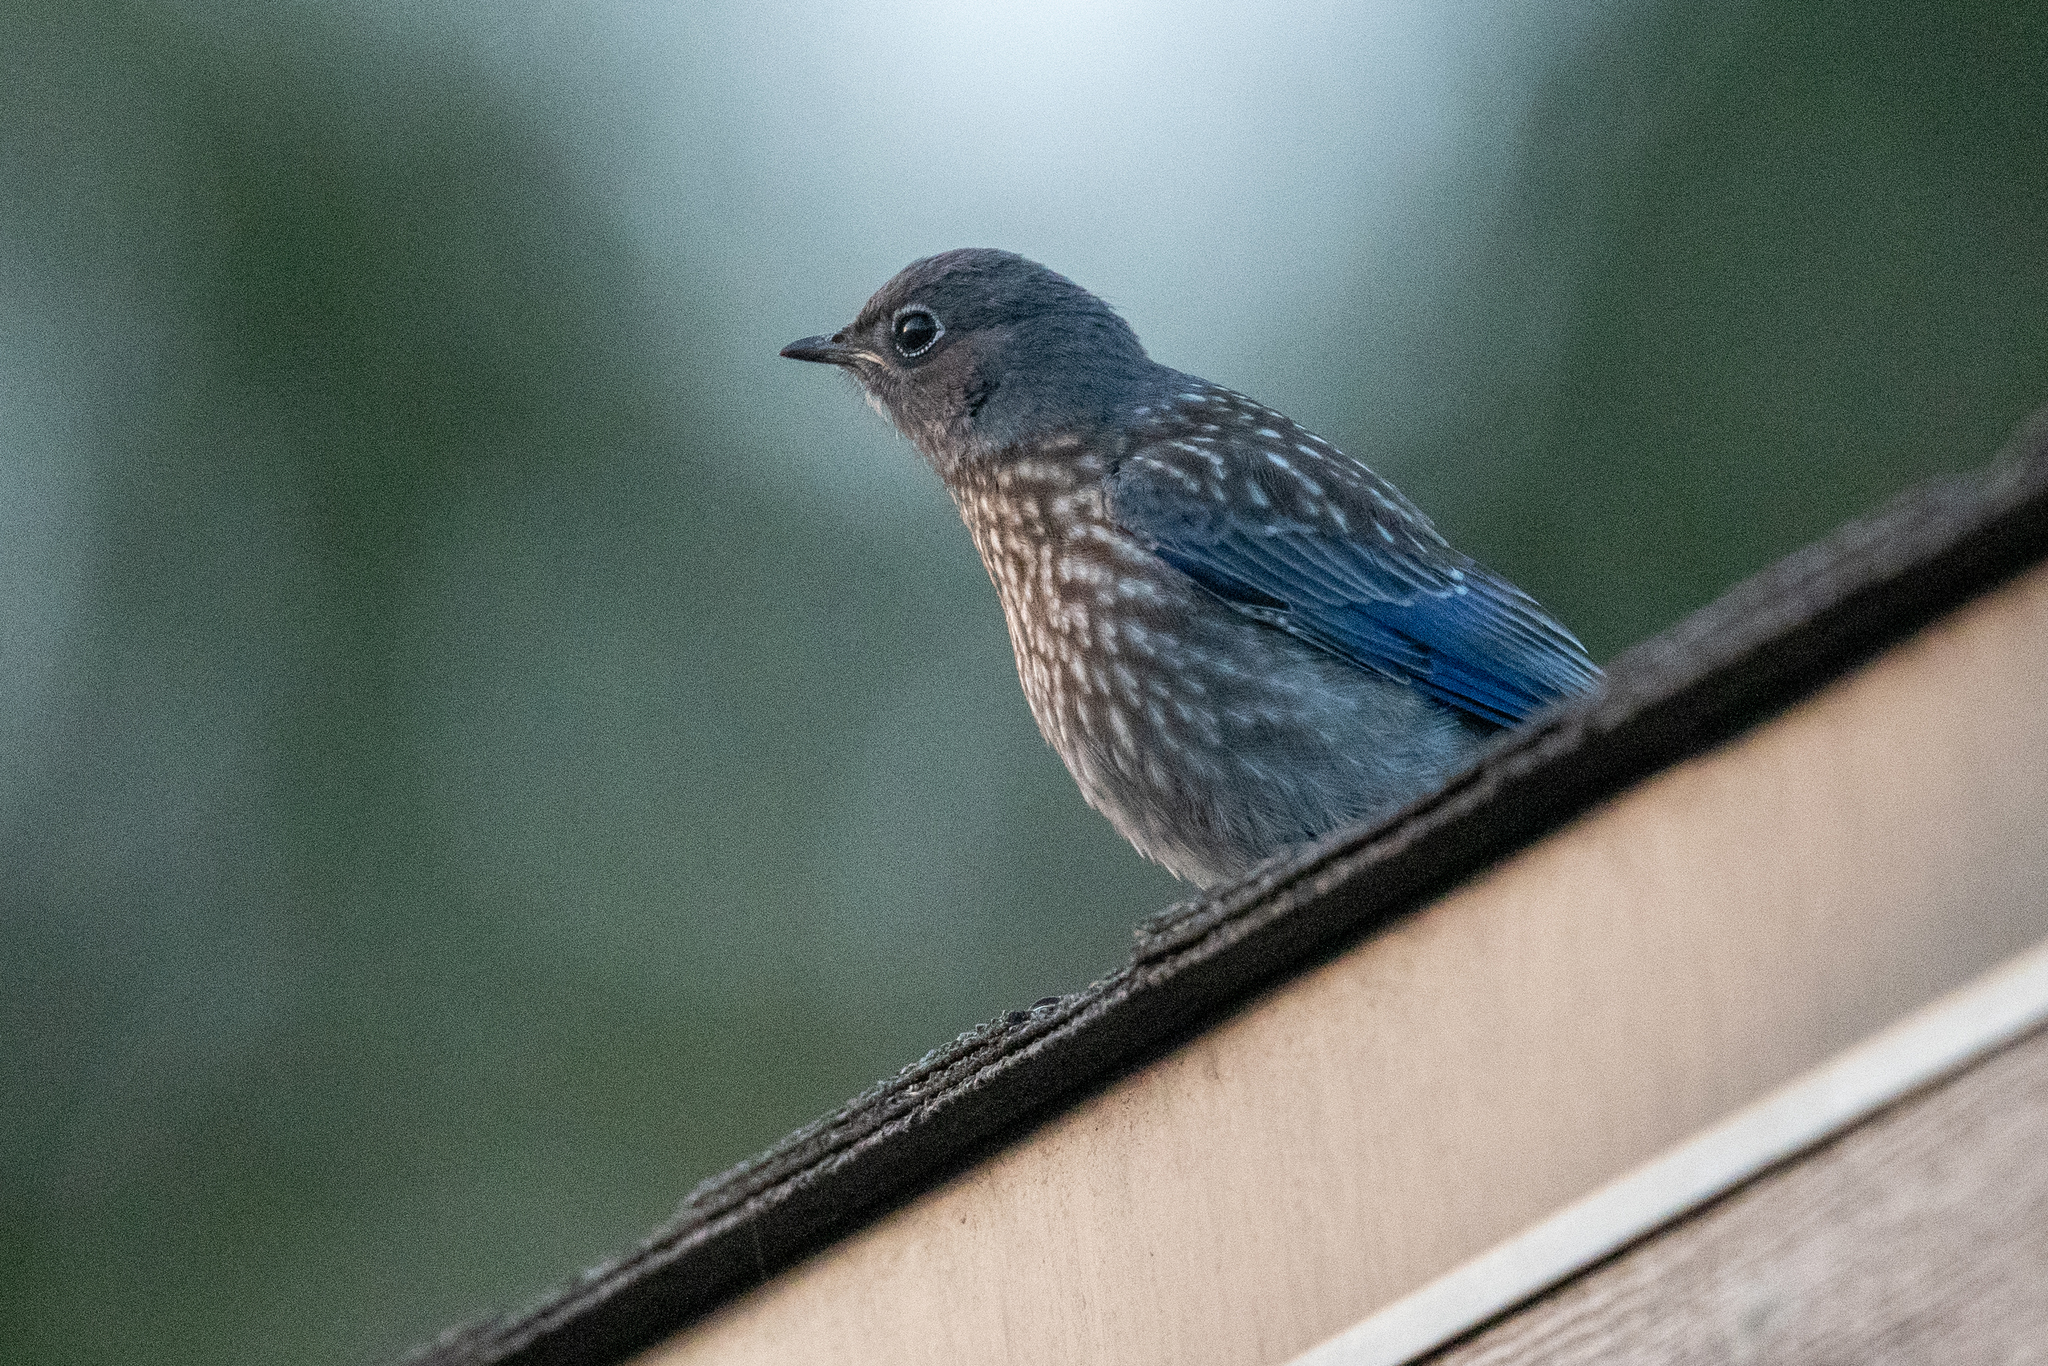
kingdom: Animalia
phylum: Chordata
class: Aves
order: Passeriformes
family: Turdidae
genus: Sialia
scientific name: Sialia mexicana
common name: Western bluebird
